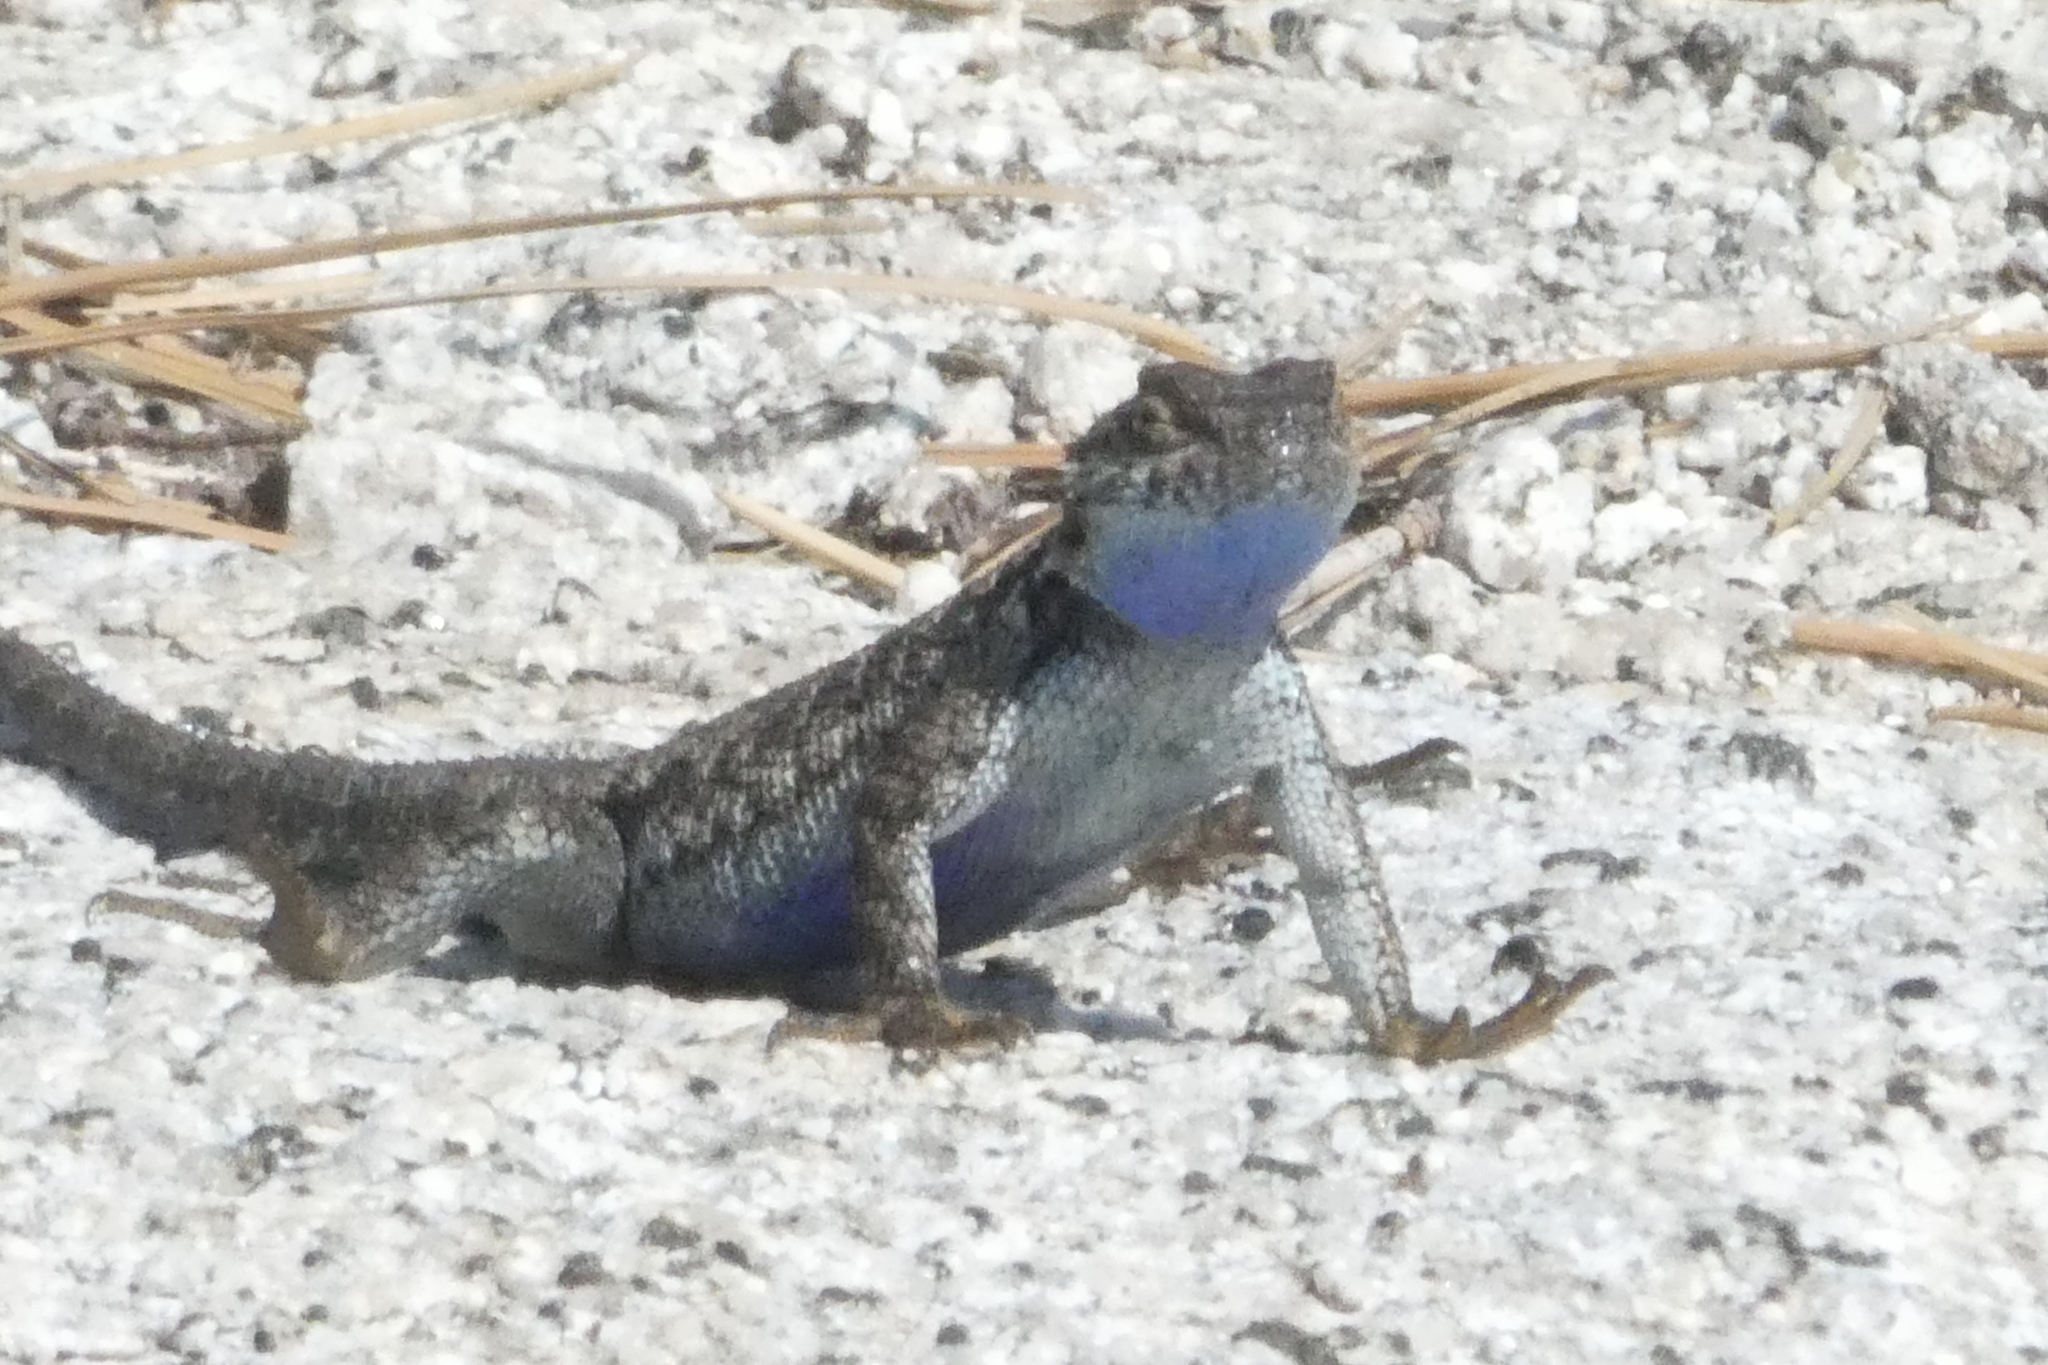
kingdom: Animalia
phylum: Chordata
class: Squamata
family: Phrynosomatidae
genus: Sceloporus
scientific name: Sceloporus occidentalis
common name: Western fence lizard
